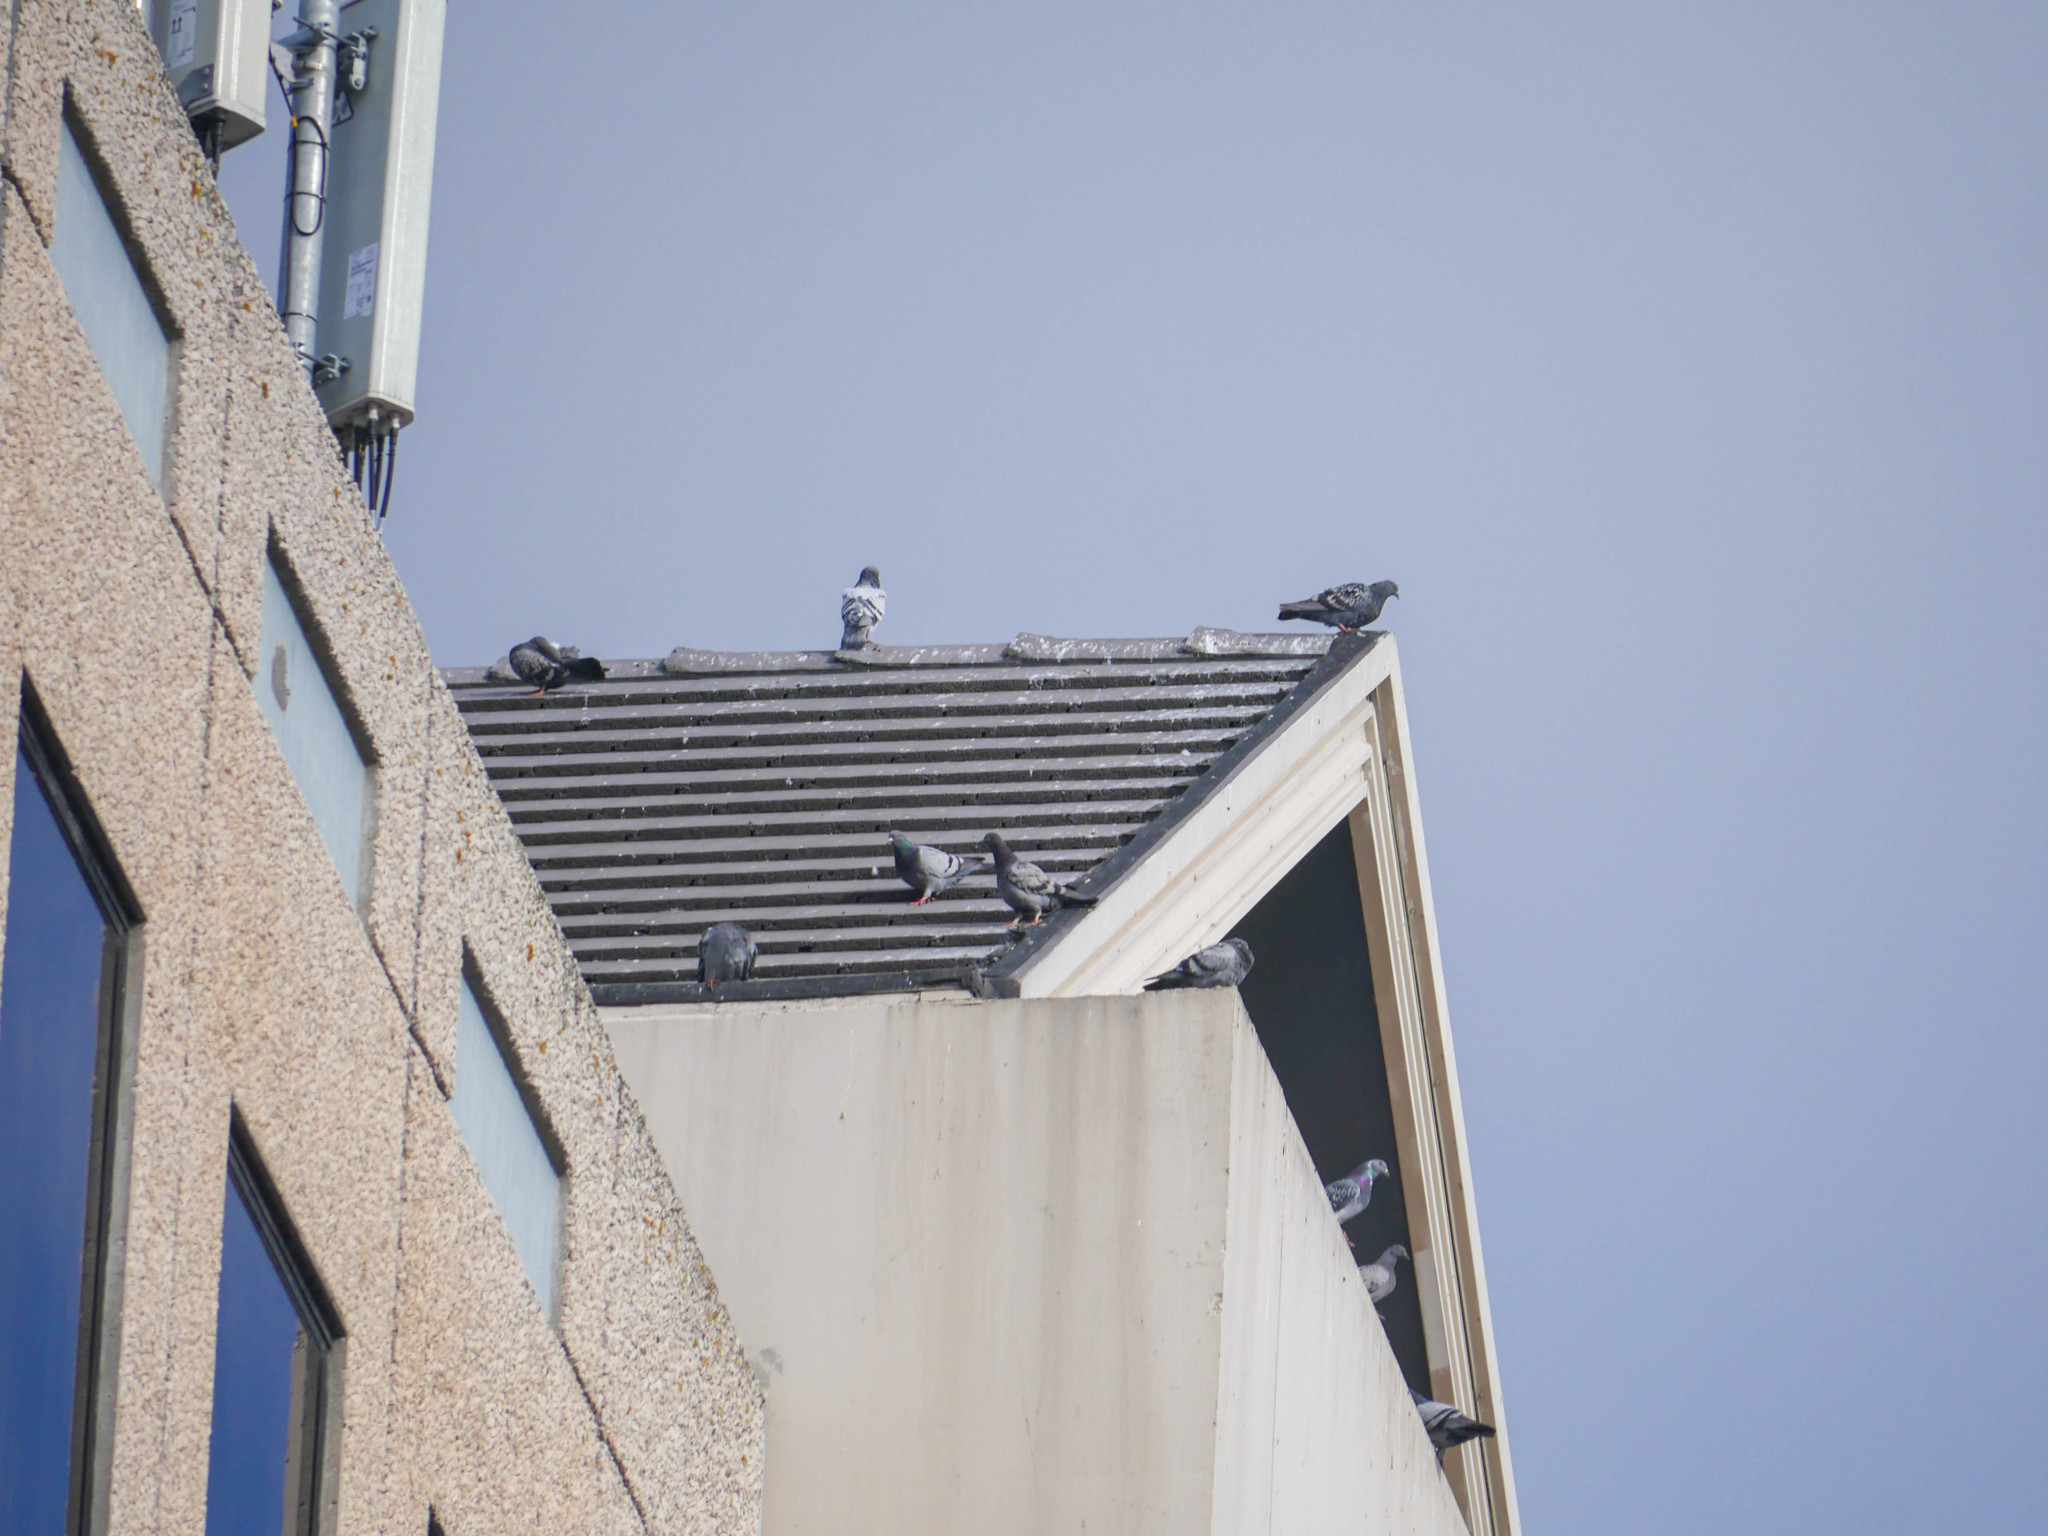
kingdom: Animalia
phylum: Chordata
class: Aves
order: Columbiformes
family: Columbidae
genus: Columba
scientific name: Columba livia
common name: Rock pigeon
